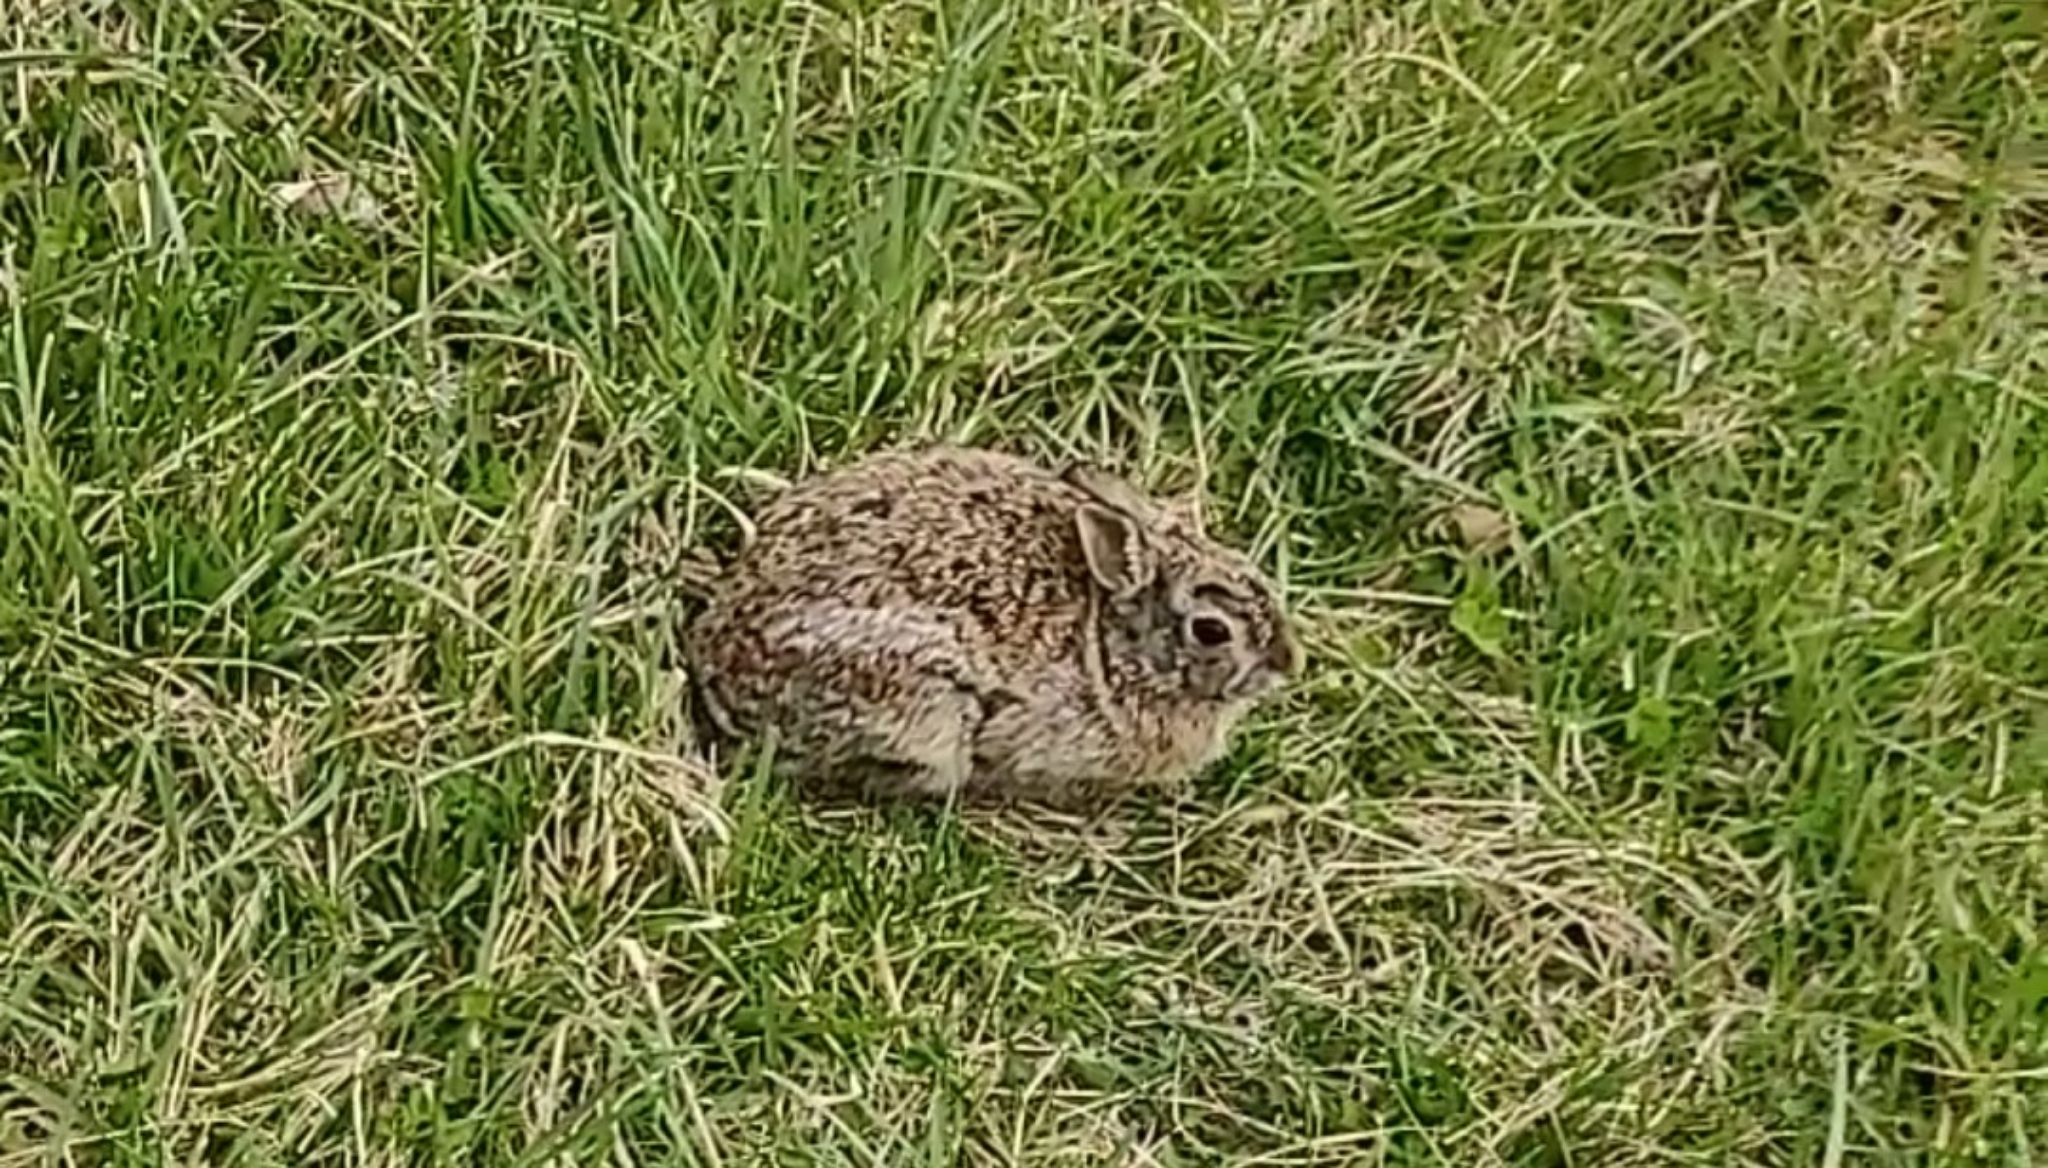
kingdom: Animalia
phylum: Chordata
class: Mammalia
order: Lagomorpha
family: Leporidae
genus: Sylvilagus
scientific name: Sylvilagus floridanus
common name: Eastern cottontail
